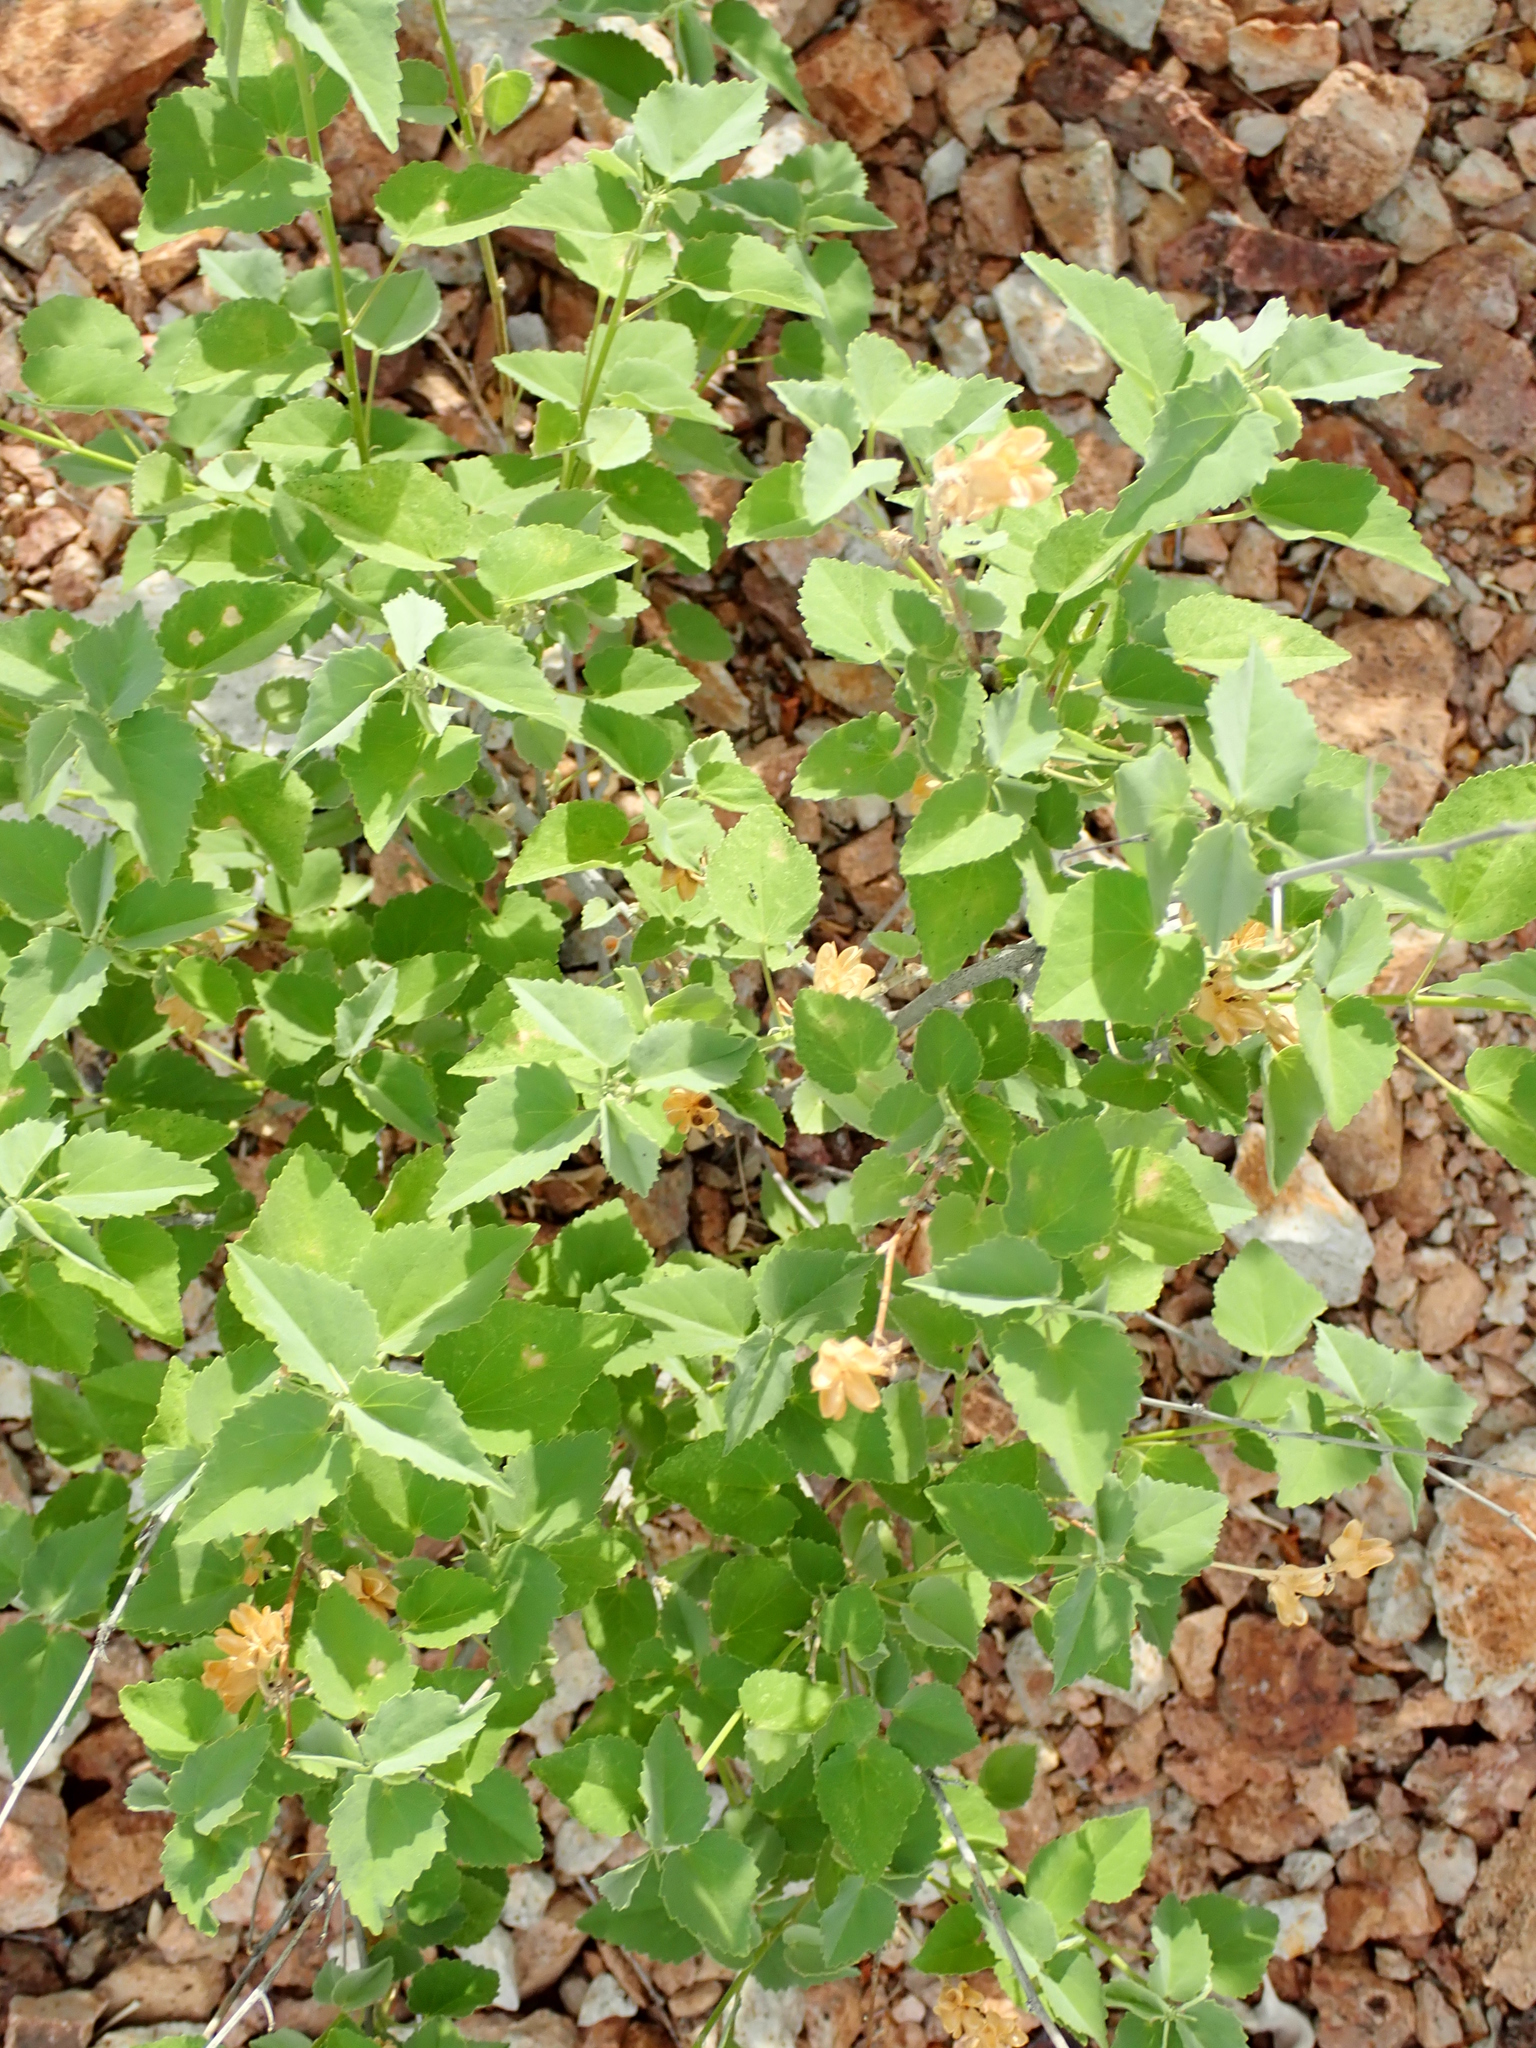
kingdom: Plantae
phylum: Tracheophyta
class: Magnoliopsida
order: Malvales
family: Malvaceae
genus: Abutilon
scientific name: Abutilon incanum
